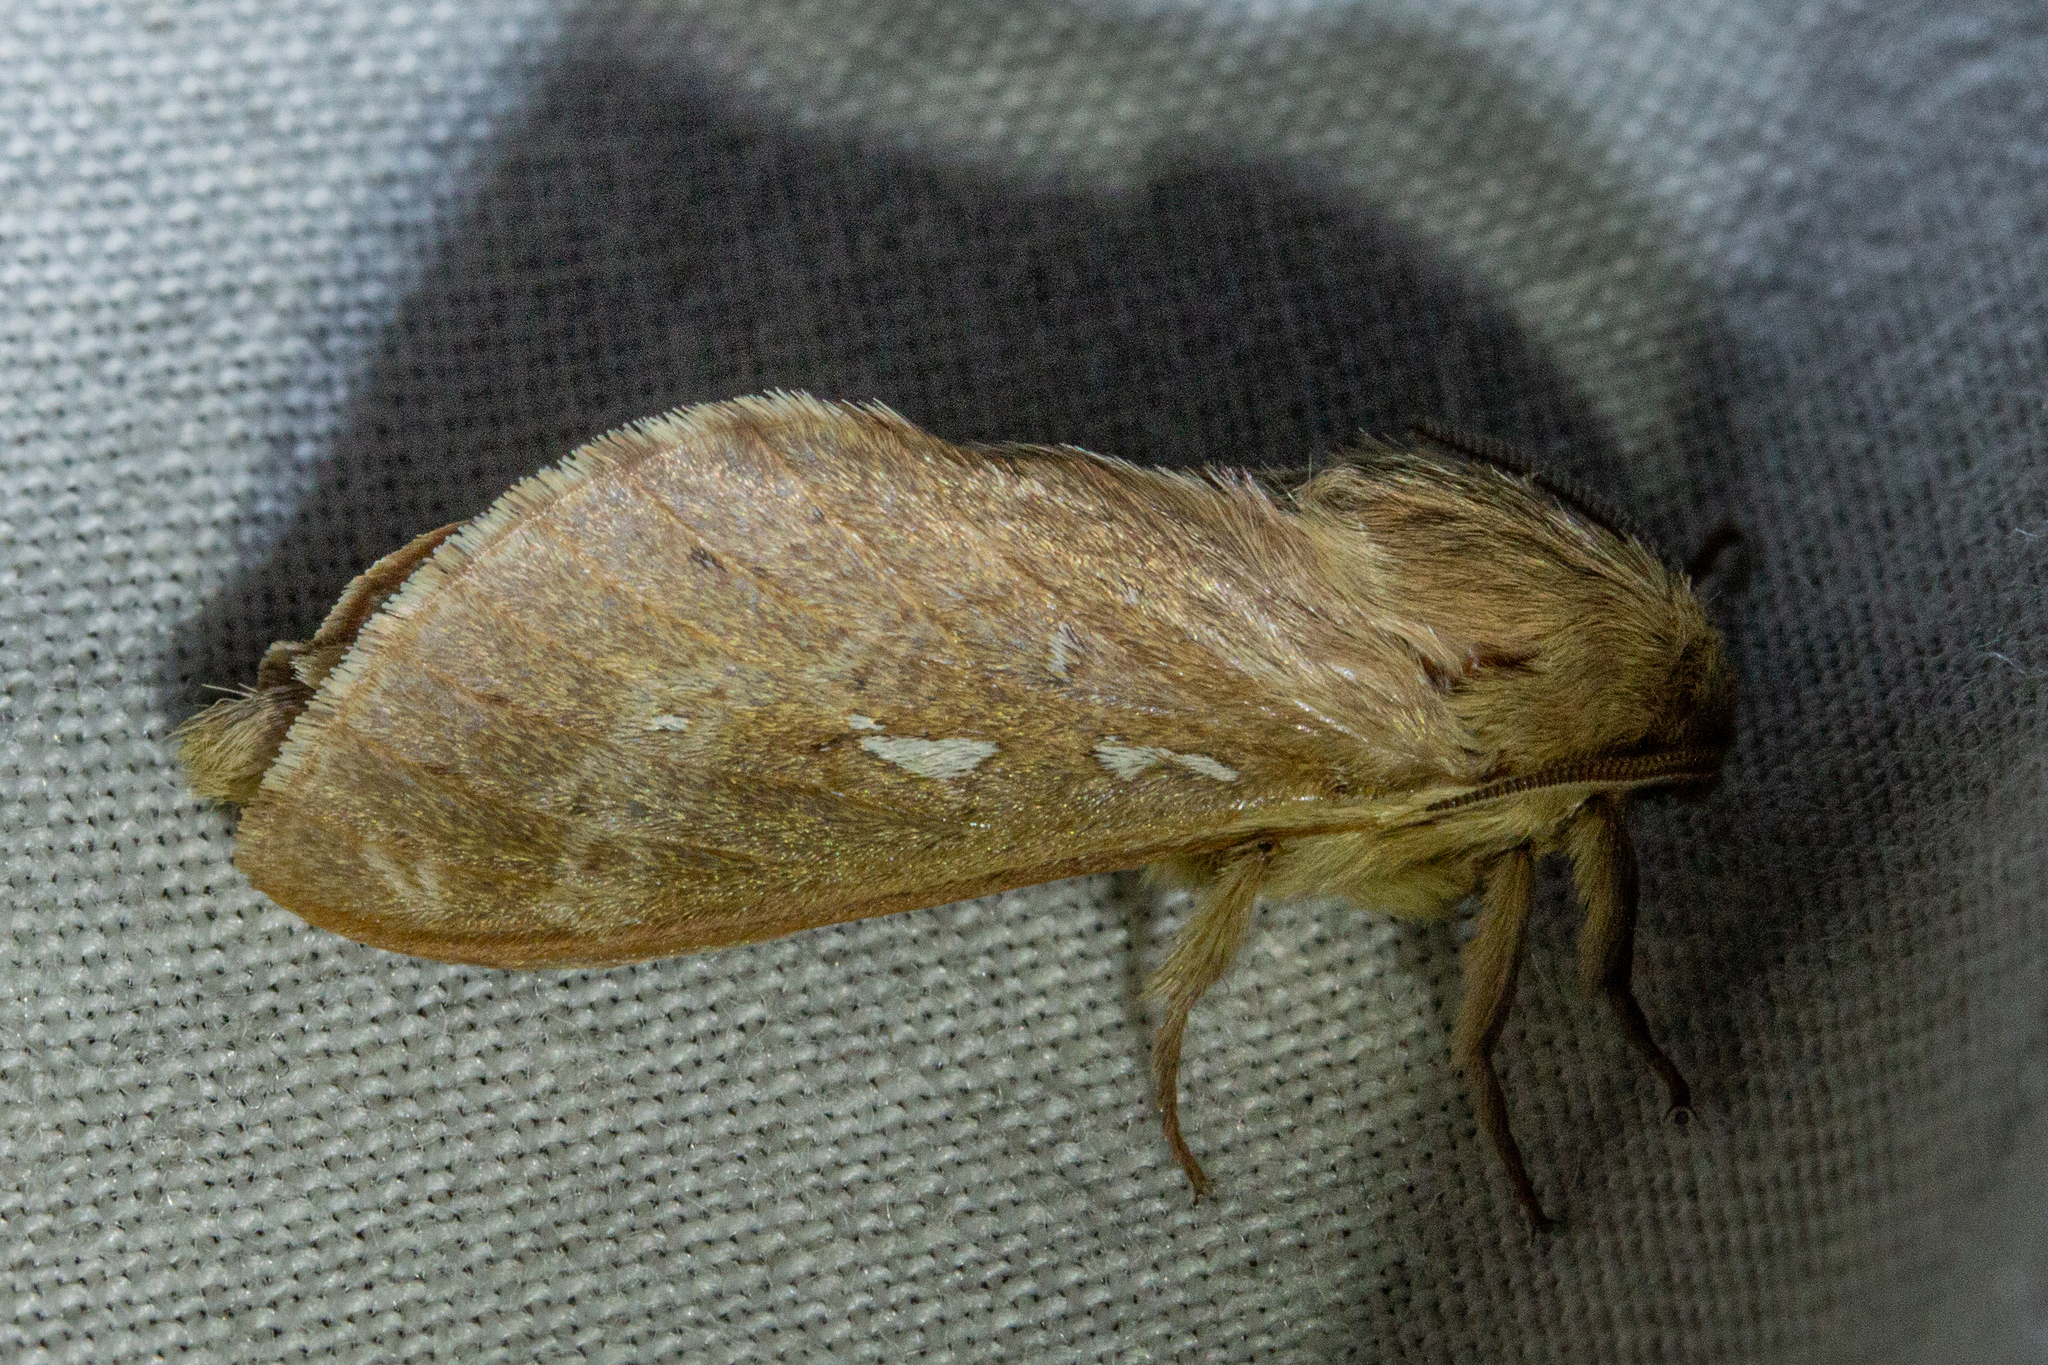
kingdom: Animalia
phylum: Arthropoda
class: Insecta
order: Lepidoptera
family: Hepialidae
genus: Wiseana
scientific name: Wiseana copularis
